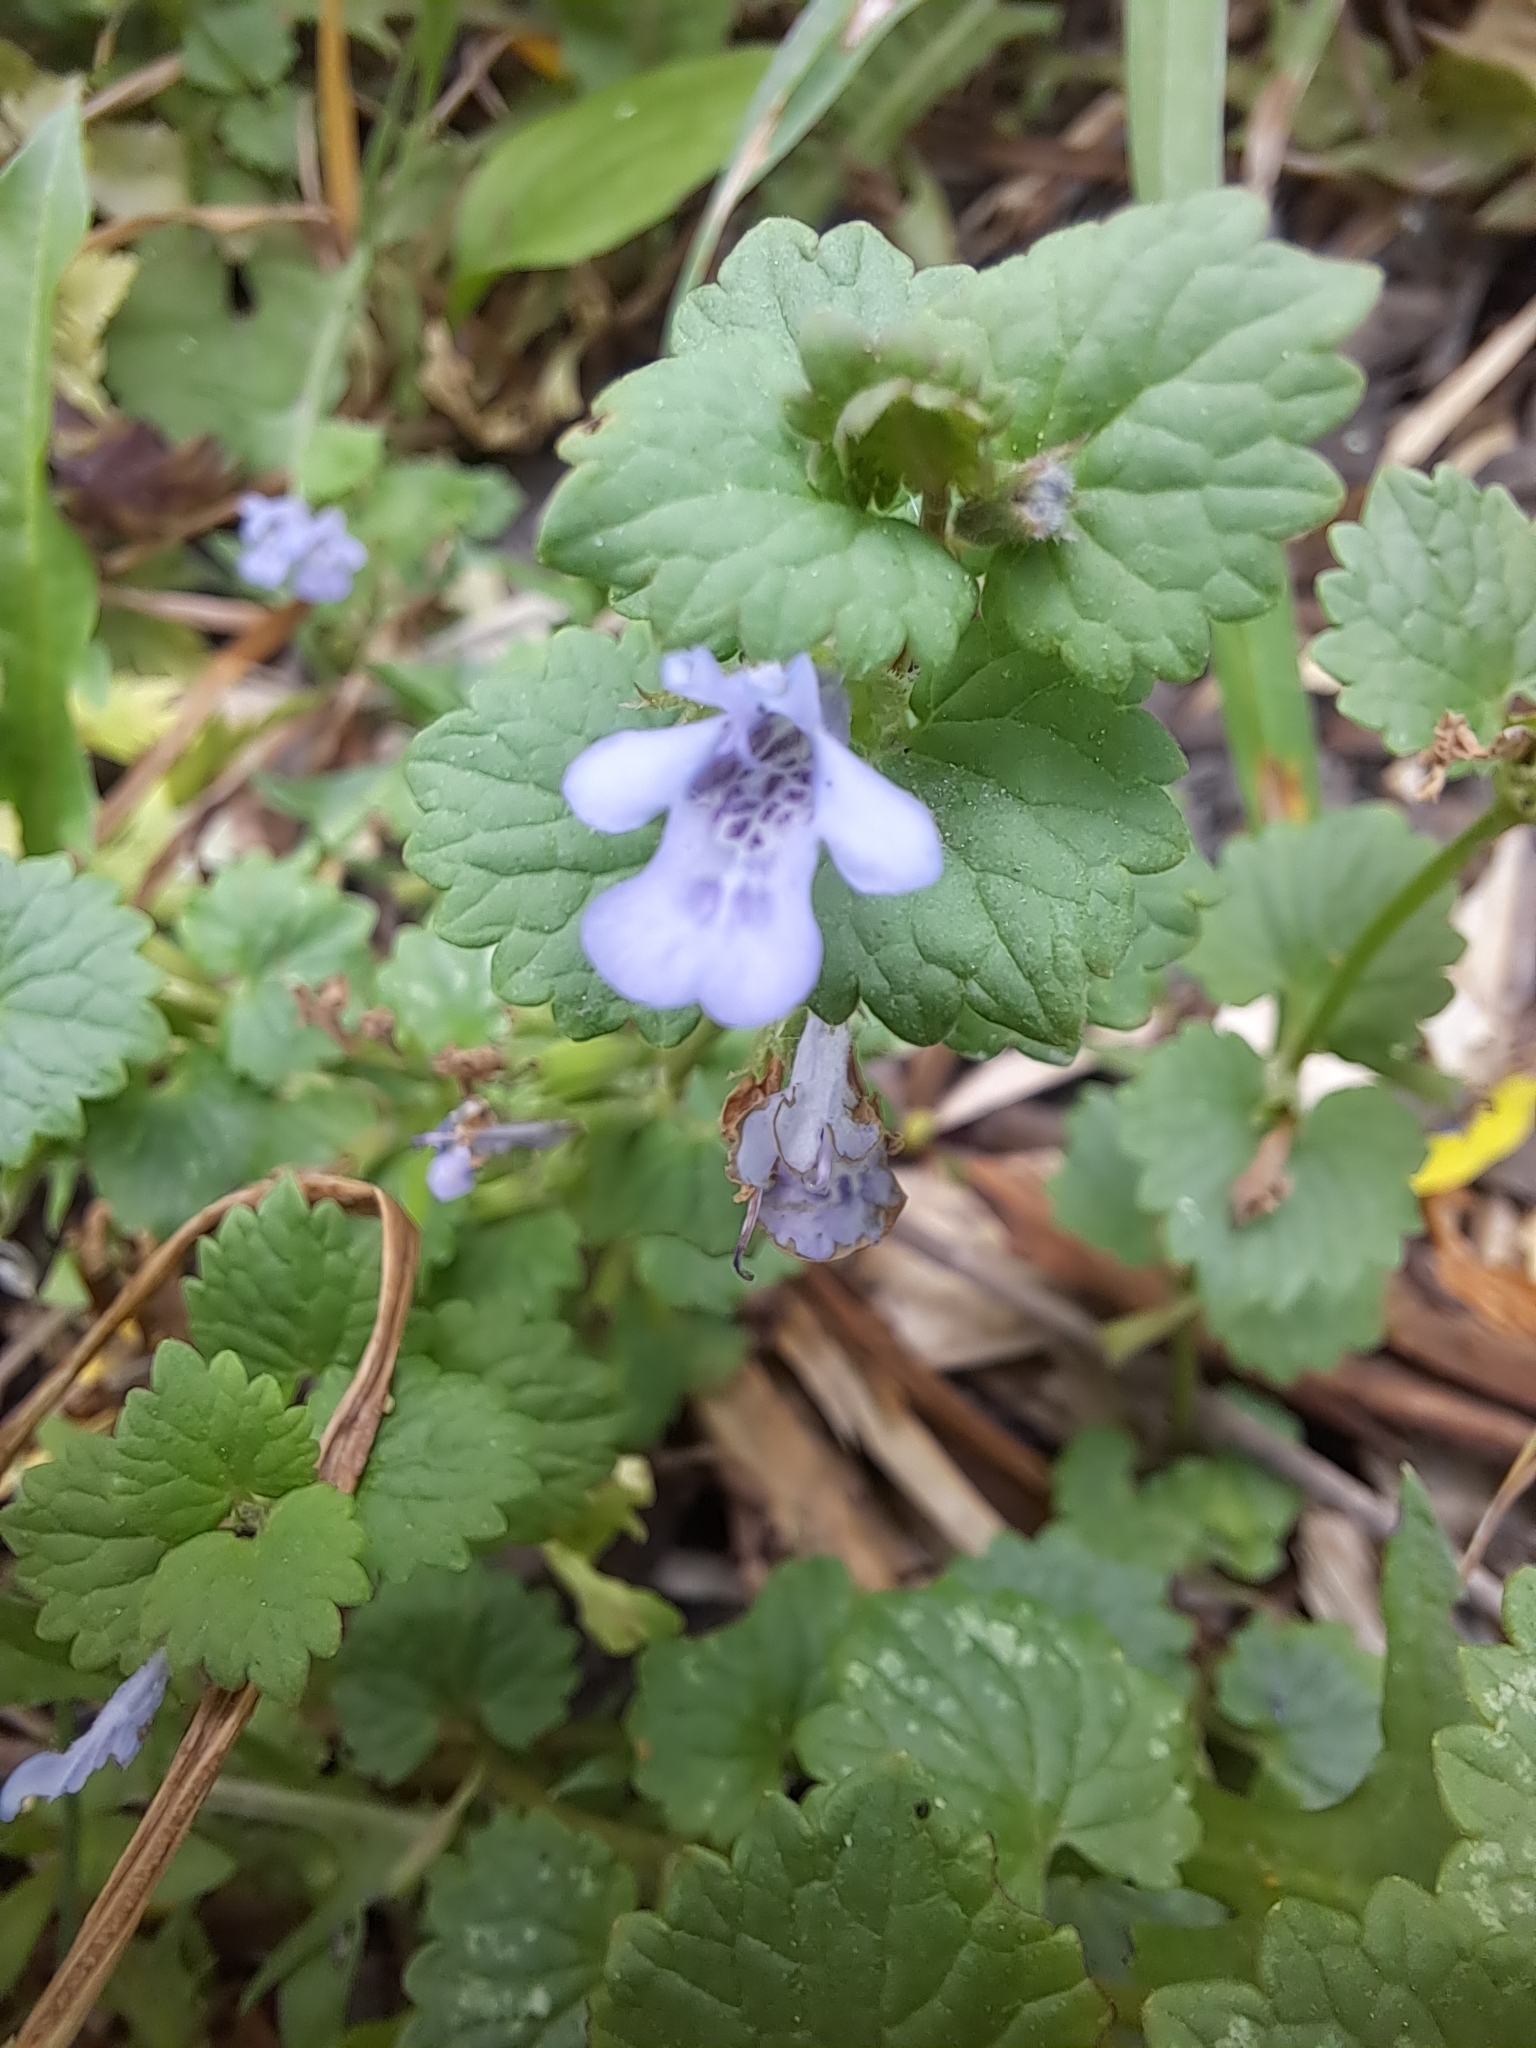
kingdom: Plantae
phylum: Tracheophyta
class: Magnoliopsida
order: Lamiales
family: Lamiaceae
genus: Glechoma
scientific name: Glechoma hederacea
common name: Ground ivy
